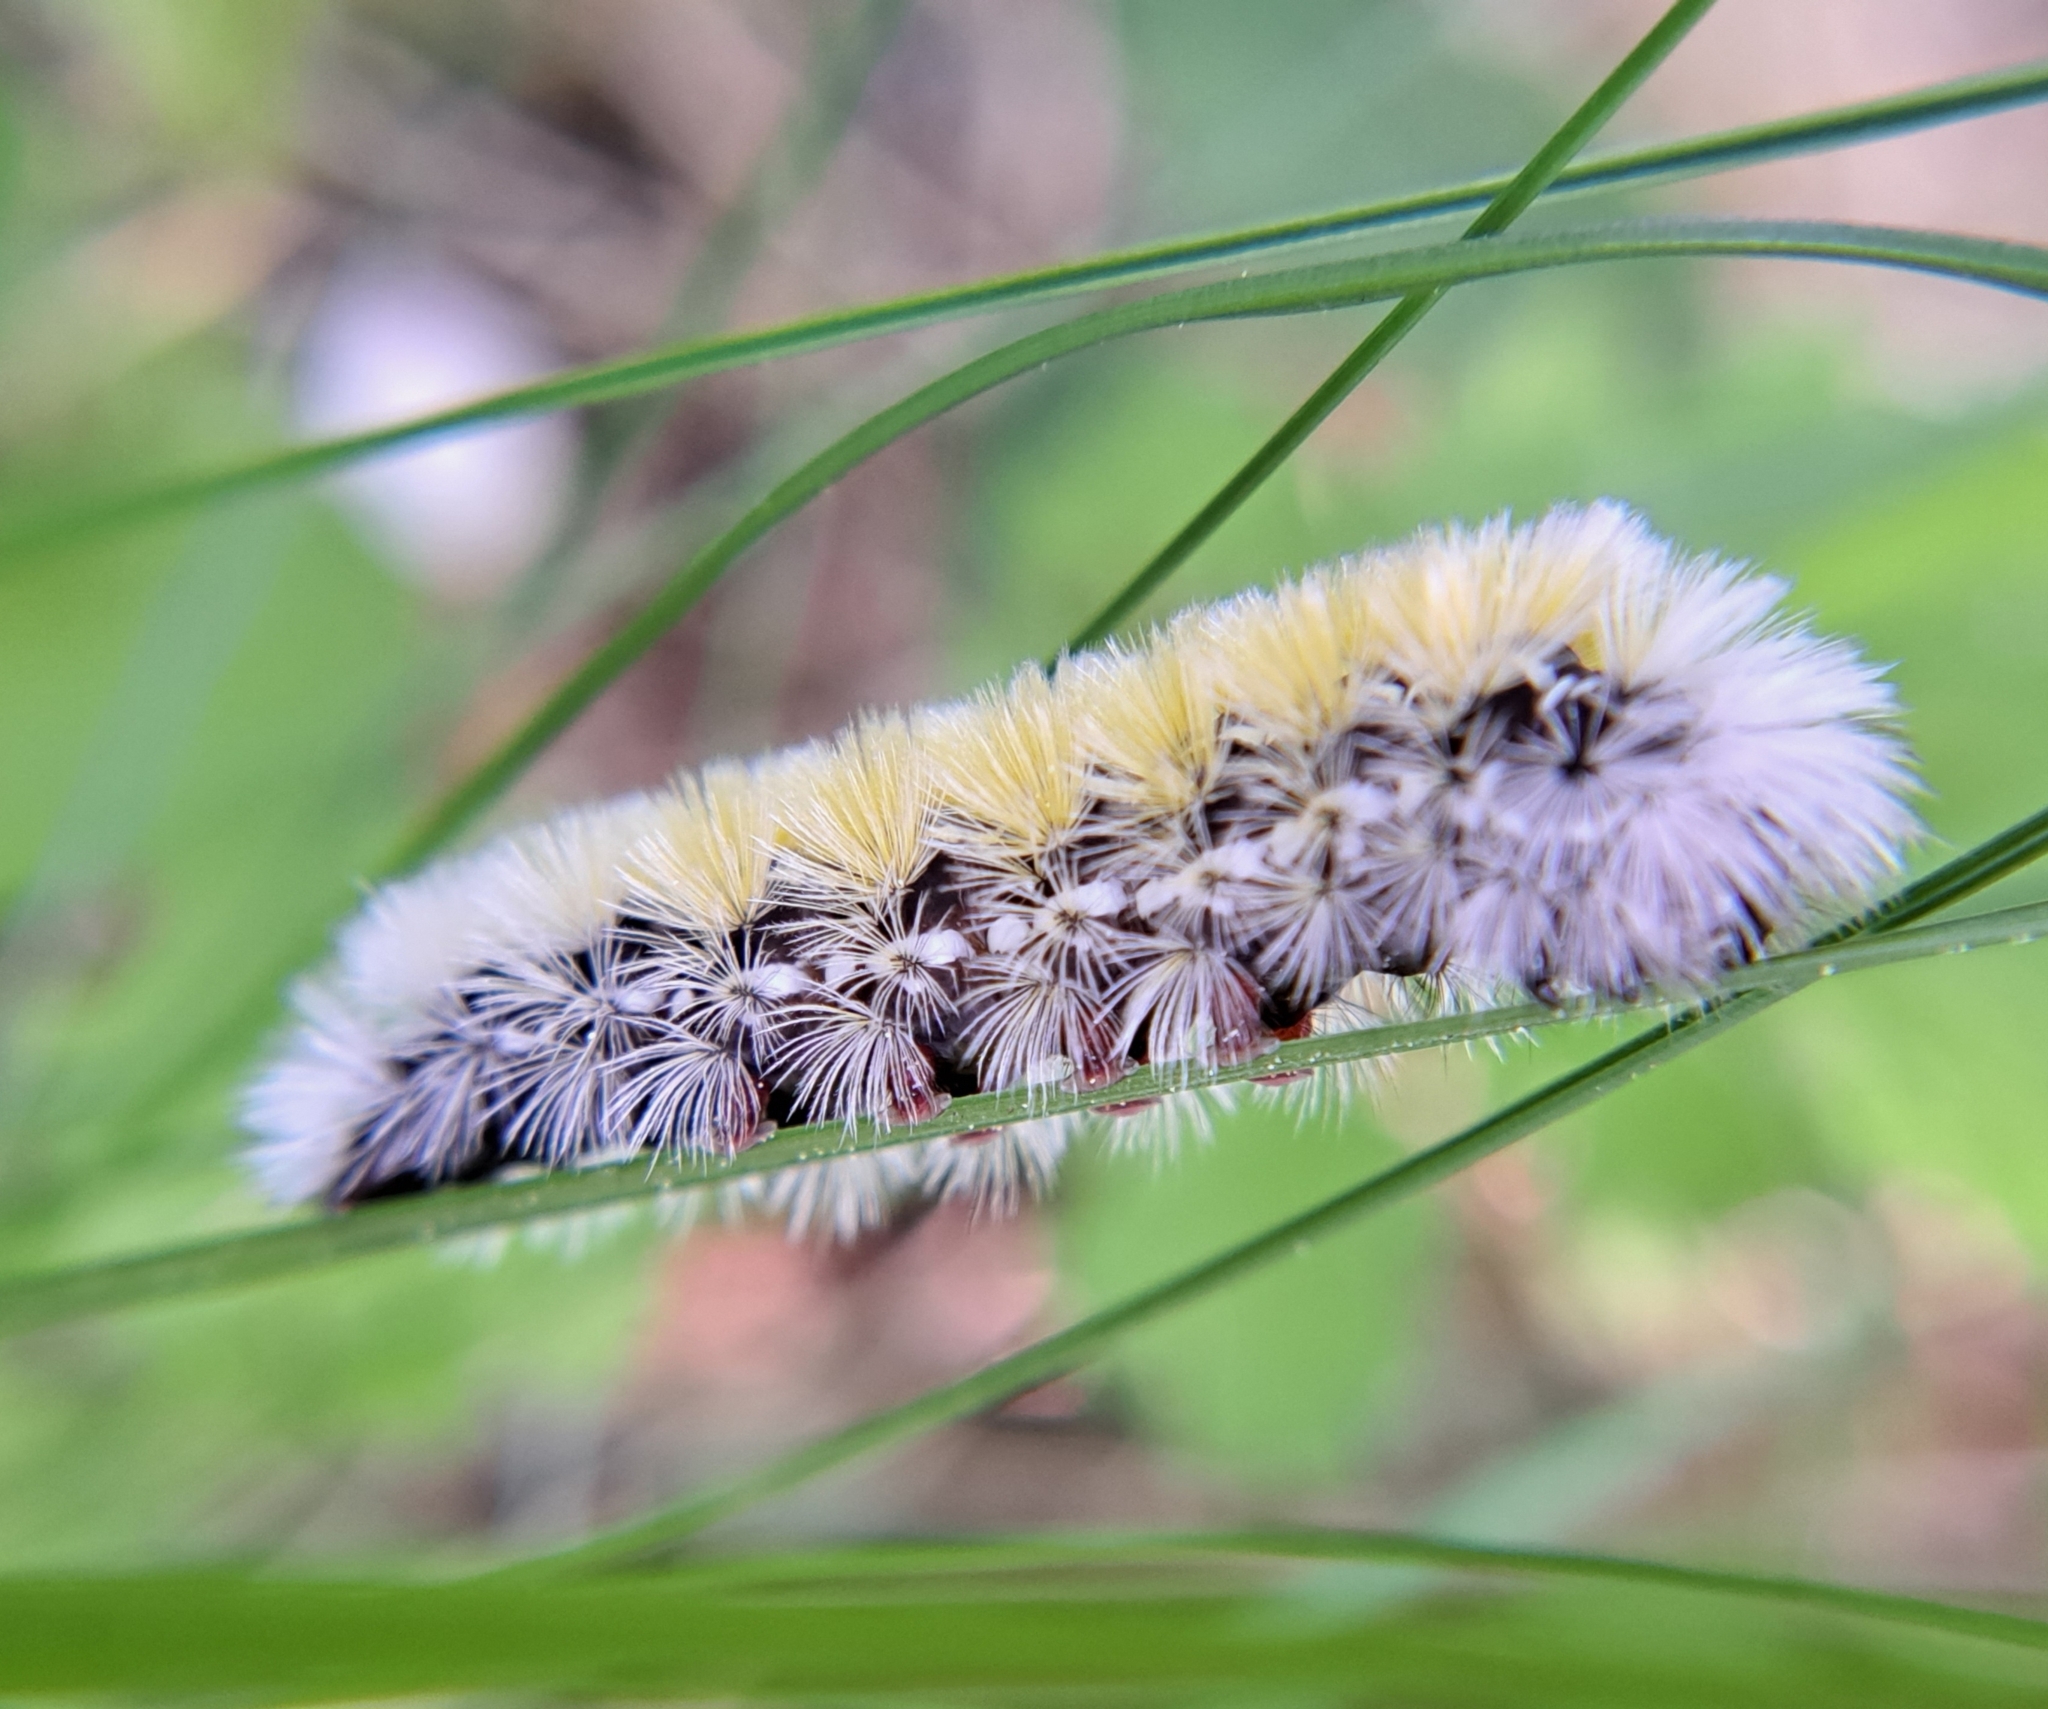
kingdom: Animalia
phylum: Arthropoda
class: Insecta
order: Lepidoptera
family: Erebidae
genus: Ctenucha
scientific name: Ctenucha virginica
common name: Virginia ctenucha moth
